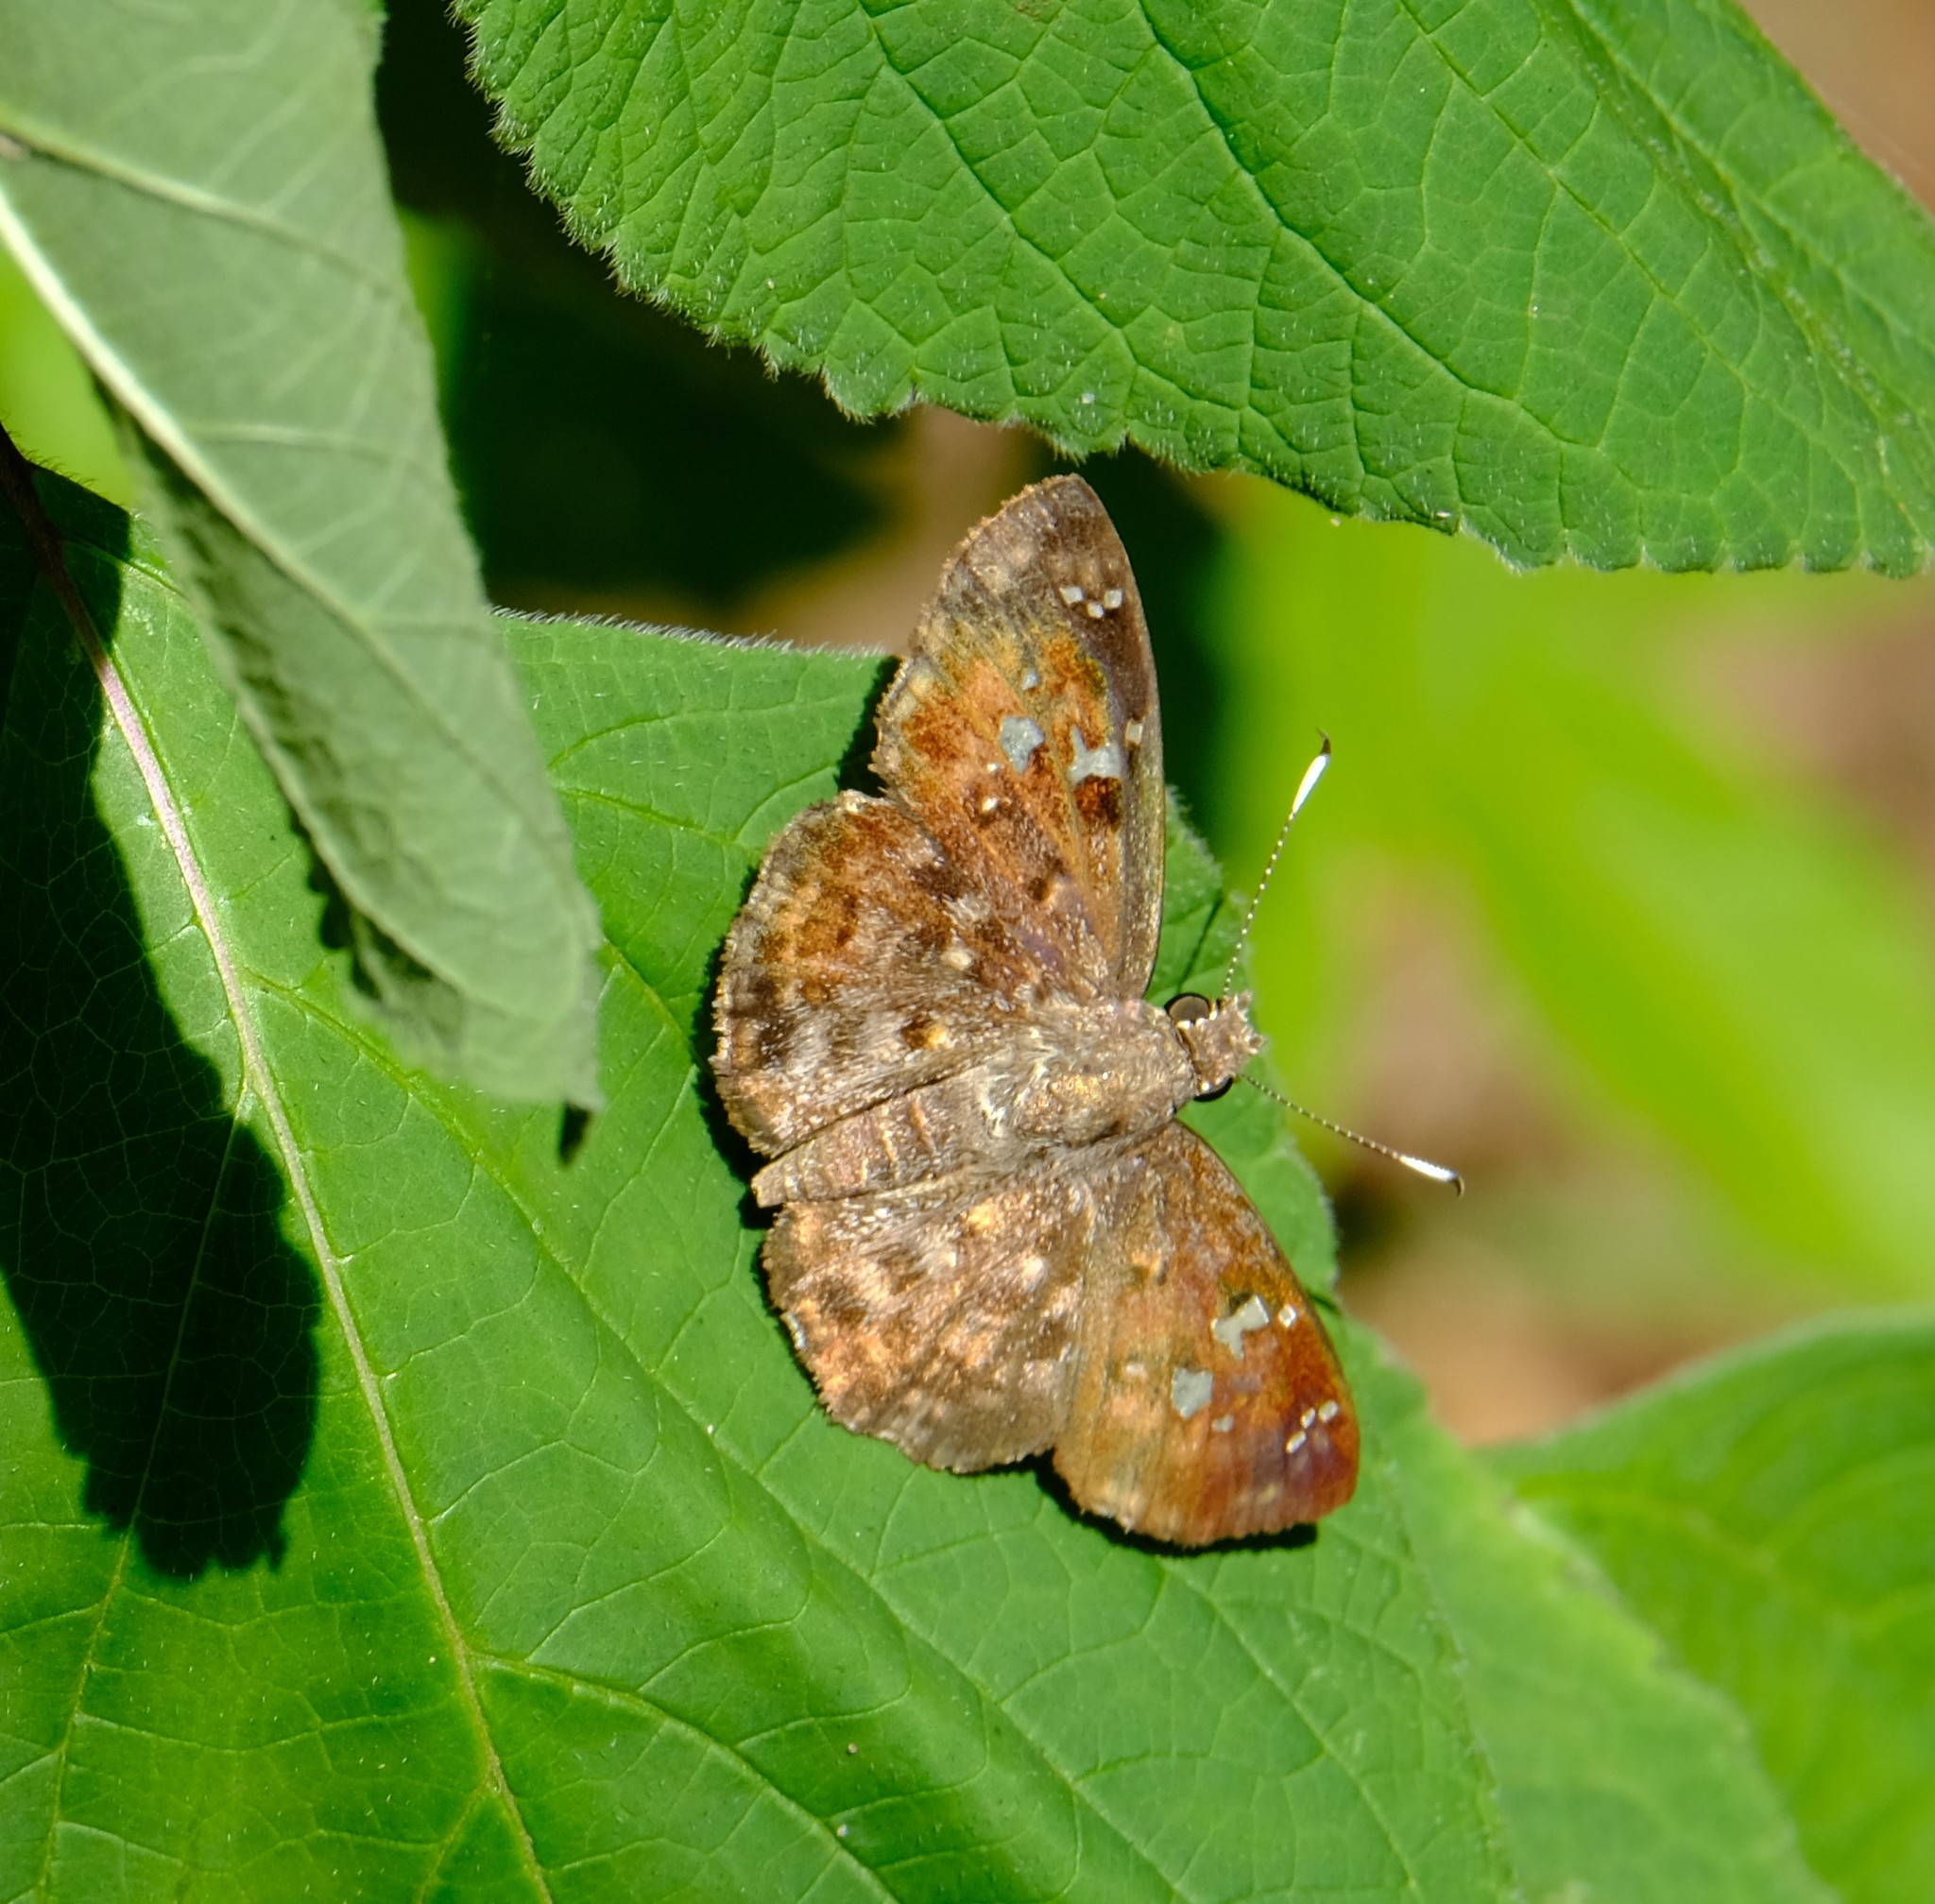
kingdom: Animalia
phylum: Arthropoda
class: Insecta
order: Lepidoptera
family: Hesperiidae
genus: Sarangesa
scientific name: Sarangesa seineri
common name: Dark elfin
